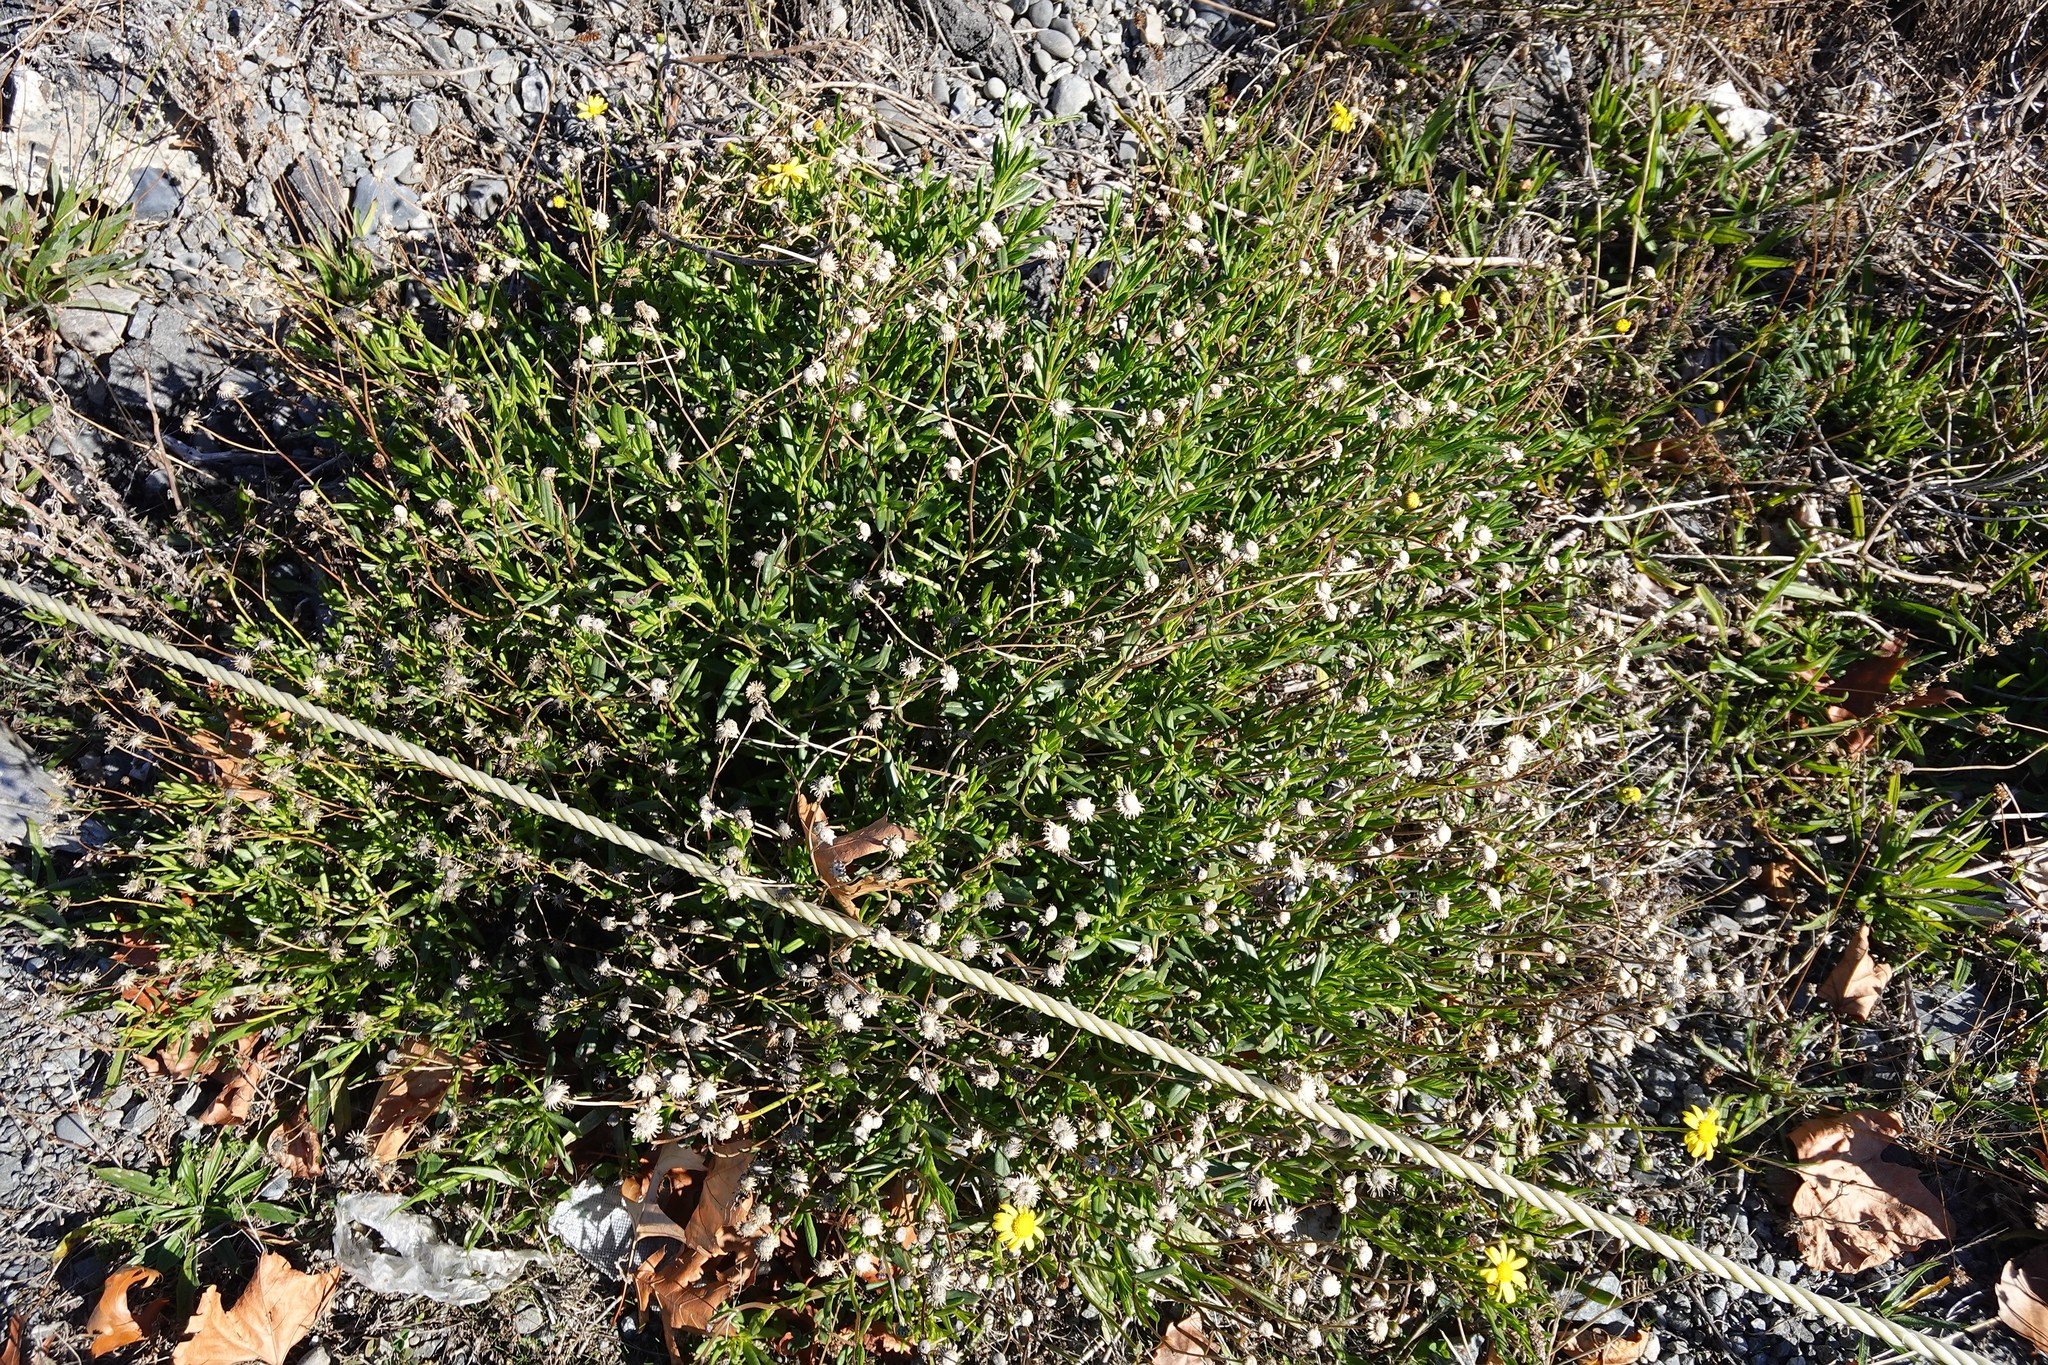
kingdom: Plantae
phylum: Tracheophyta
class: Magnoliopsida
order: Asterales
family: Asteraceae
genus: Senecio
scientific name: Senecio skirrhodon
